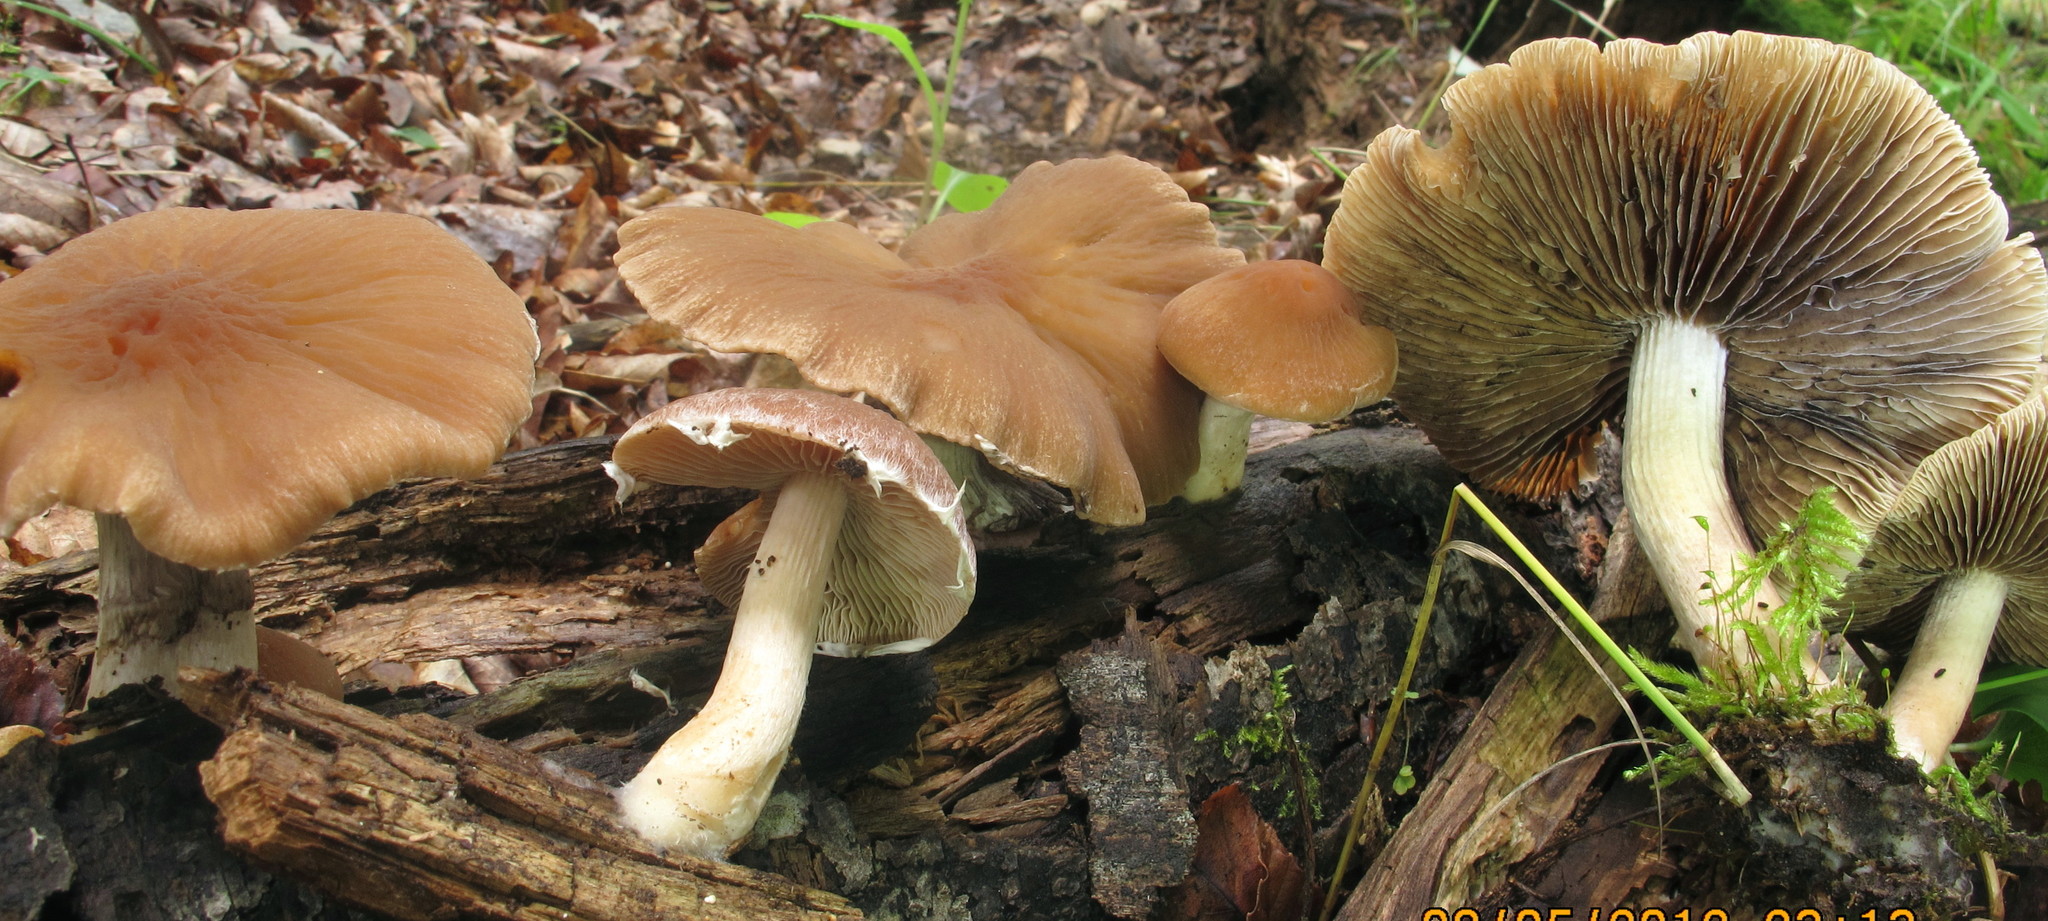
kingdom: Fungi
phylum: Basidiomycota
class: Agaricomycetes
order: Agaricales
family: Psathyrellaceae
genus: Typhrasa
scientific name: Typhrasa gossypina
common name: Wrinkled psathyrella
